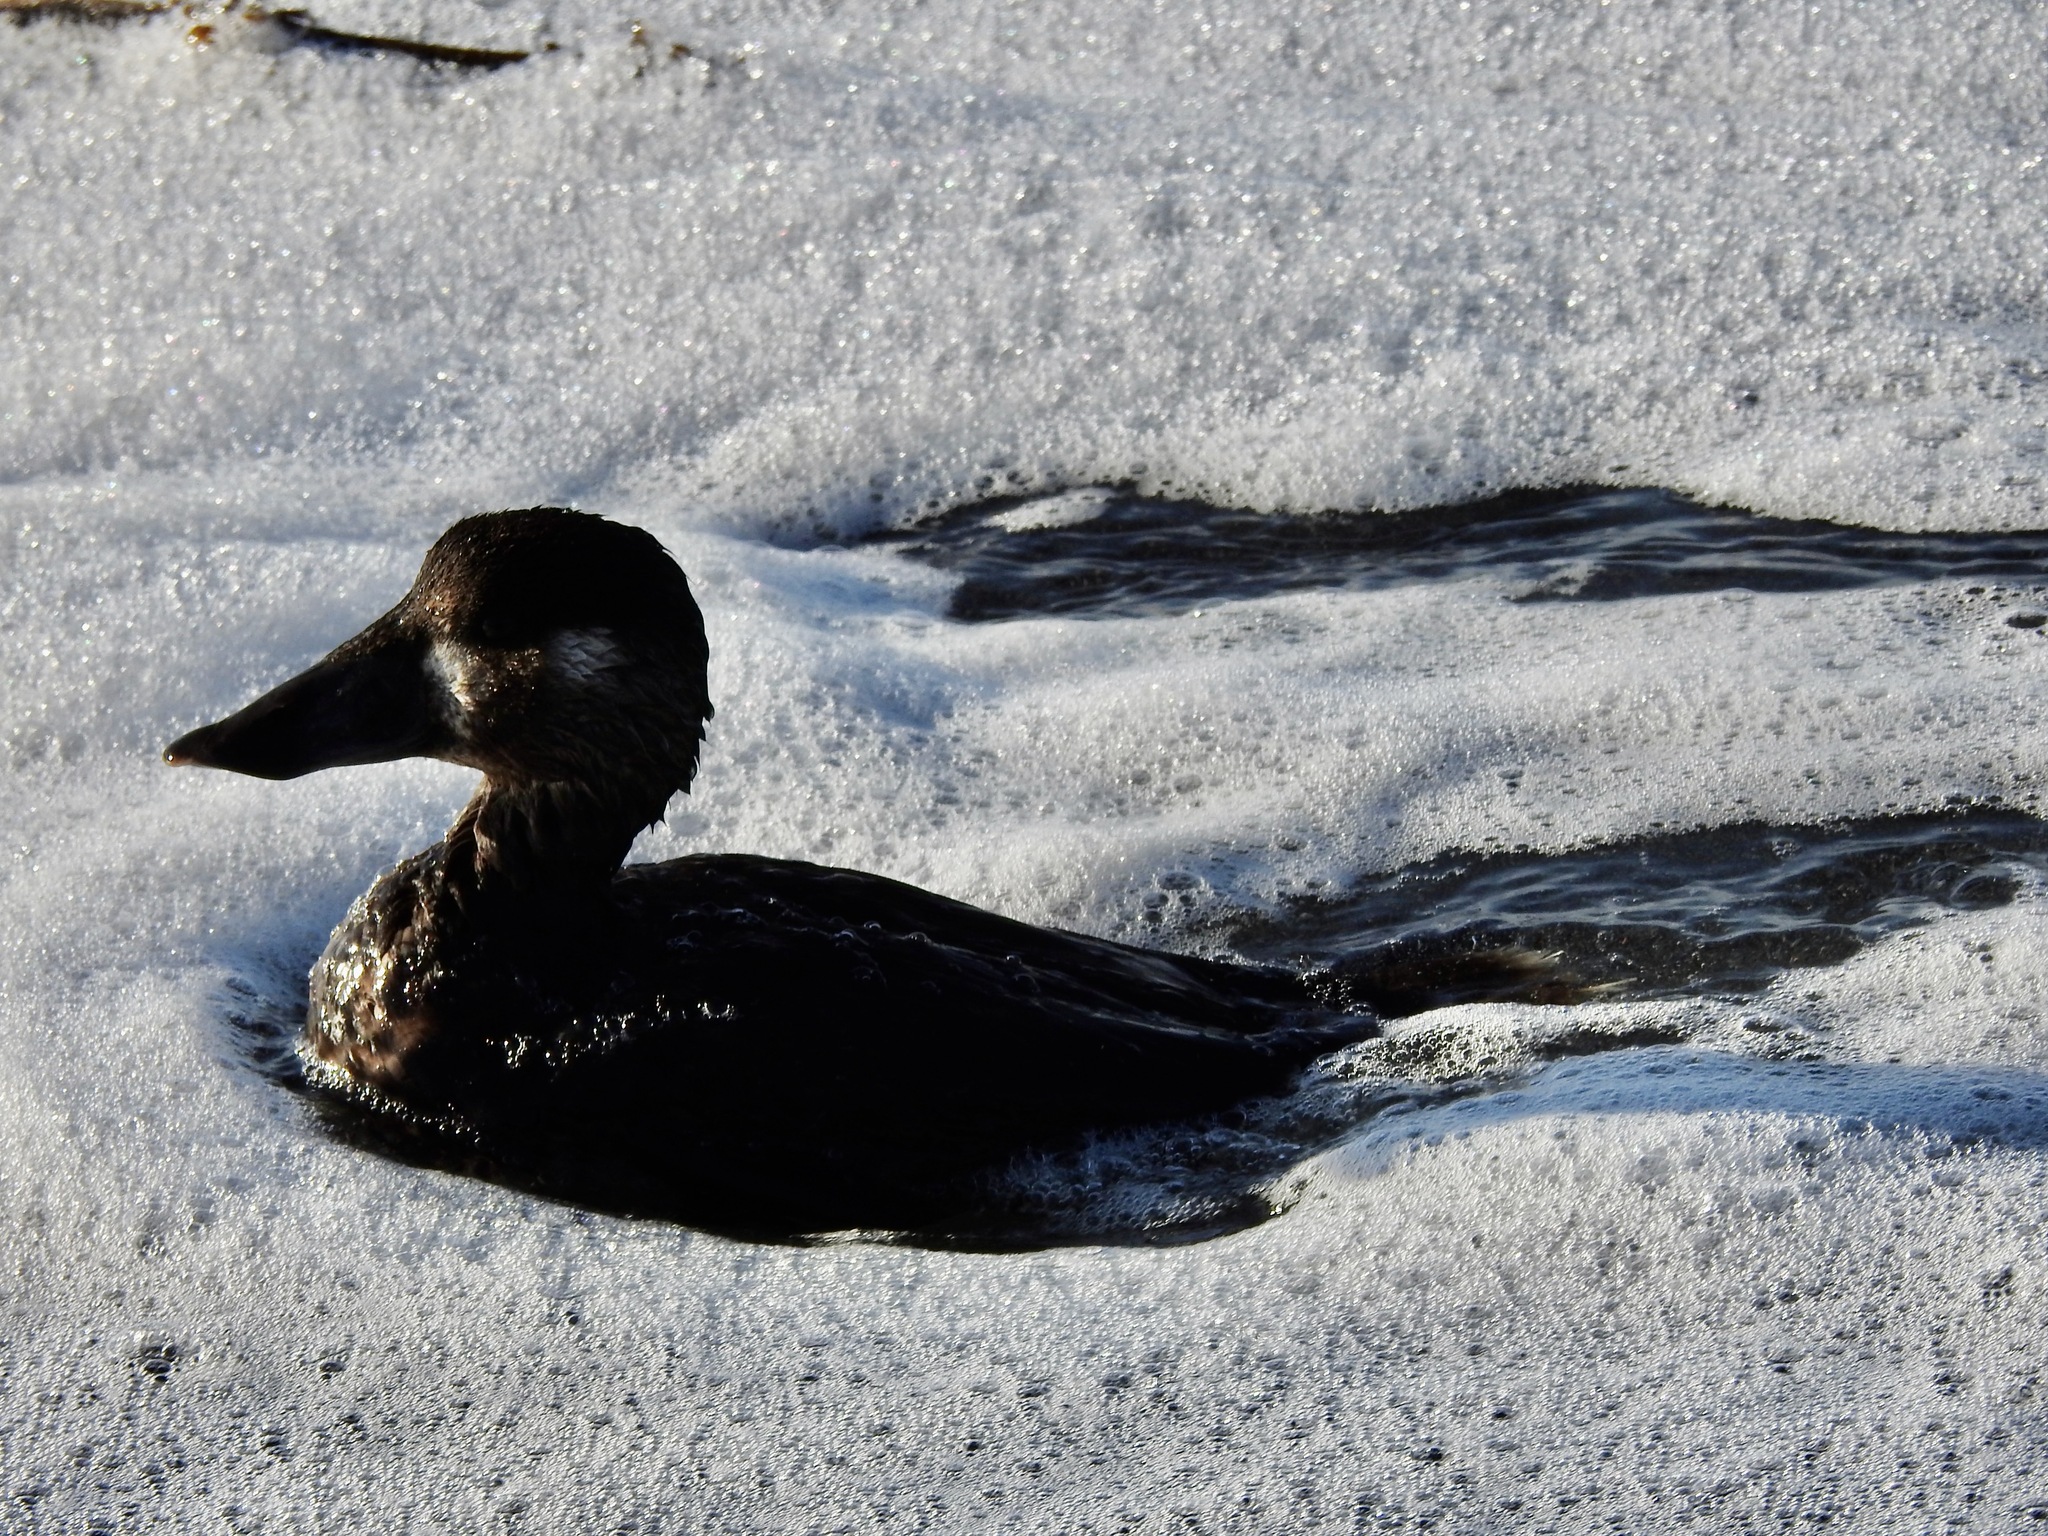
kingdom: Animalia
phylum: Chordata
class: Aves
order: Anseriformes
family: Anatidae
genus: Melanitta
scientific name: Melanitta perspicillata
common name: Surf scoter
